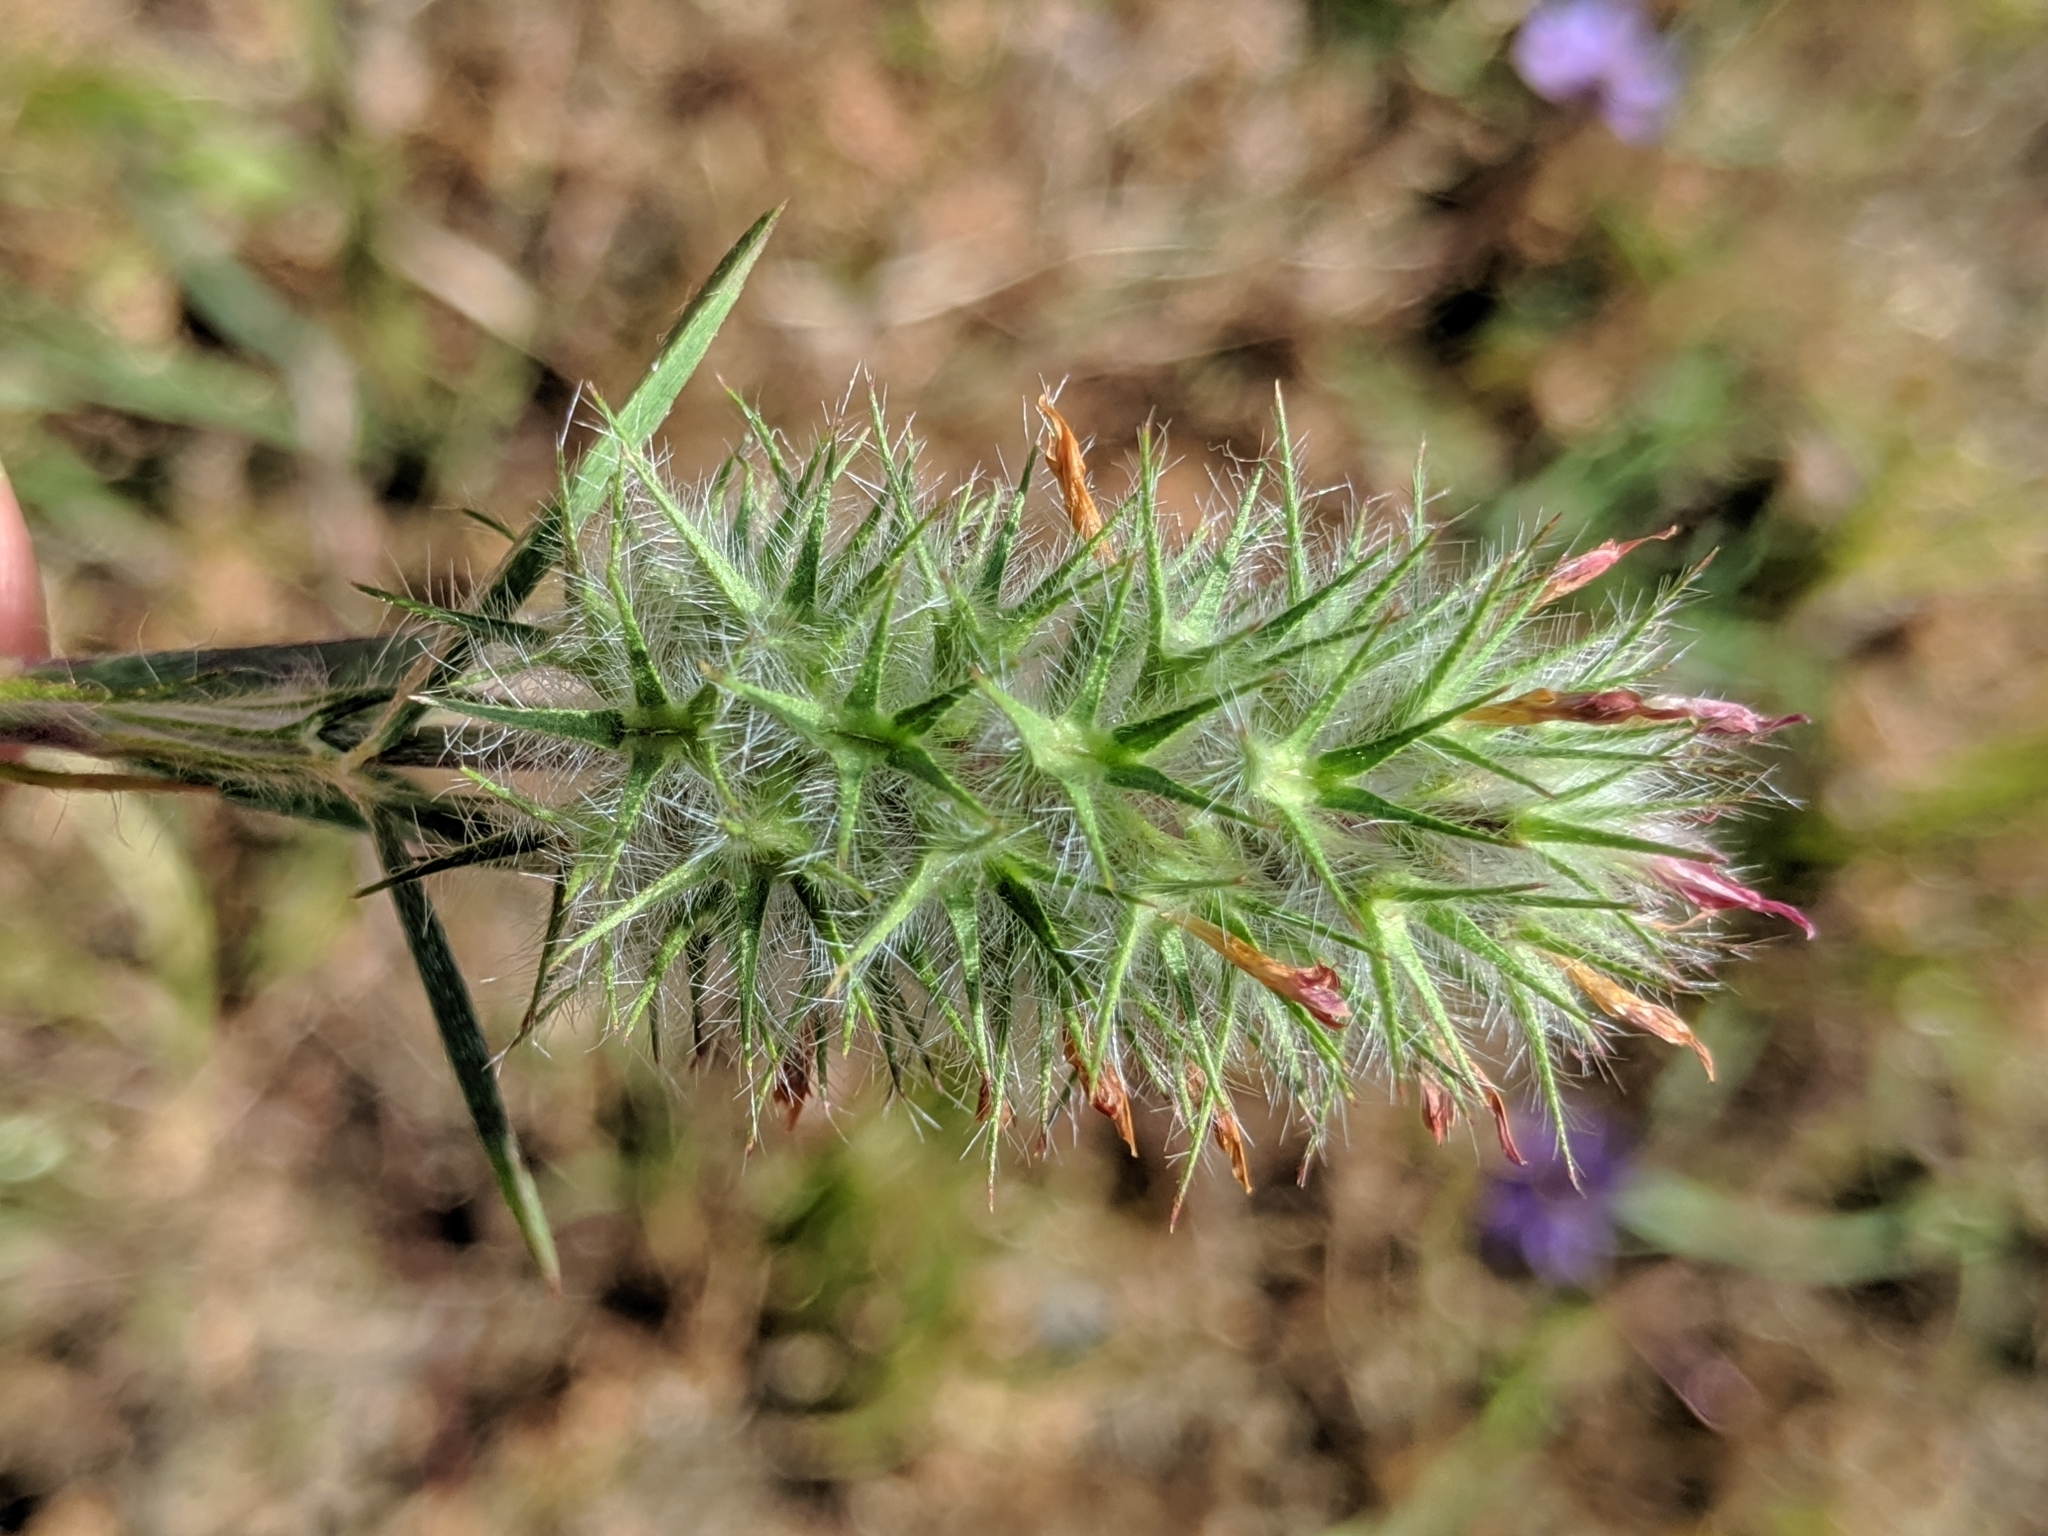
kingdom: Plantae
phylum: Tracheophyta
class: Magnoliopsida
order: Fabales
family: Fabaceae
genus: Trifolium
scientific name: Trifolium angustifolium
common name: Narrow clover
